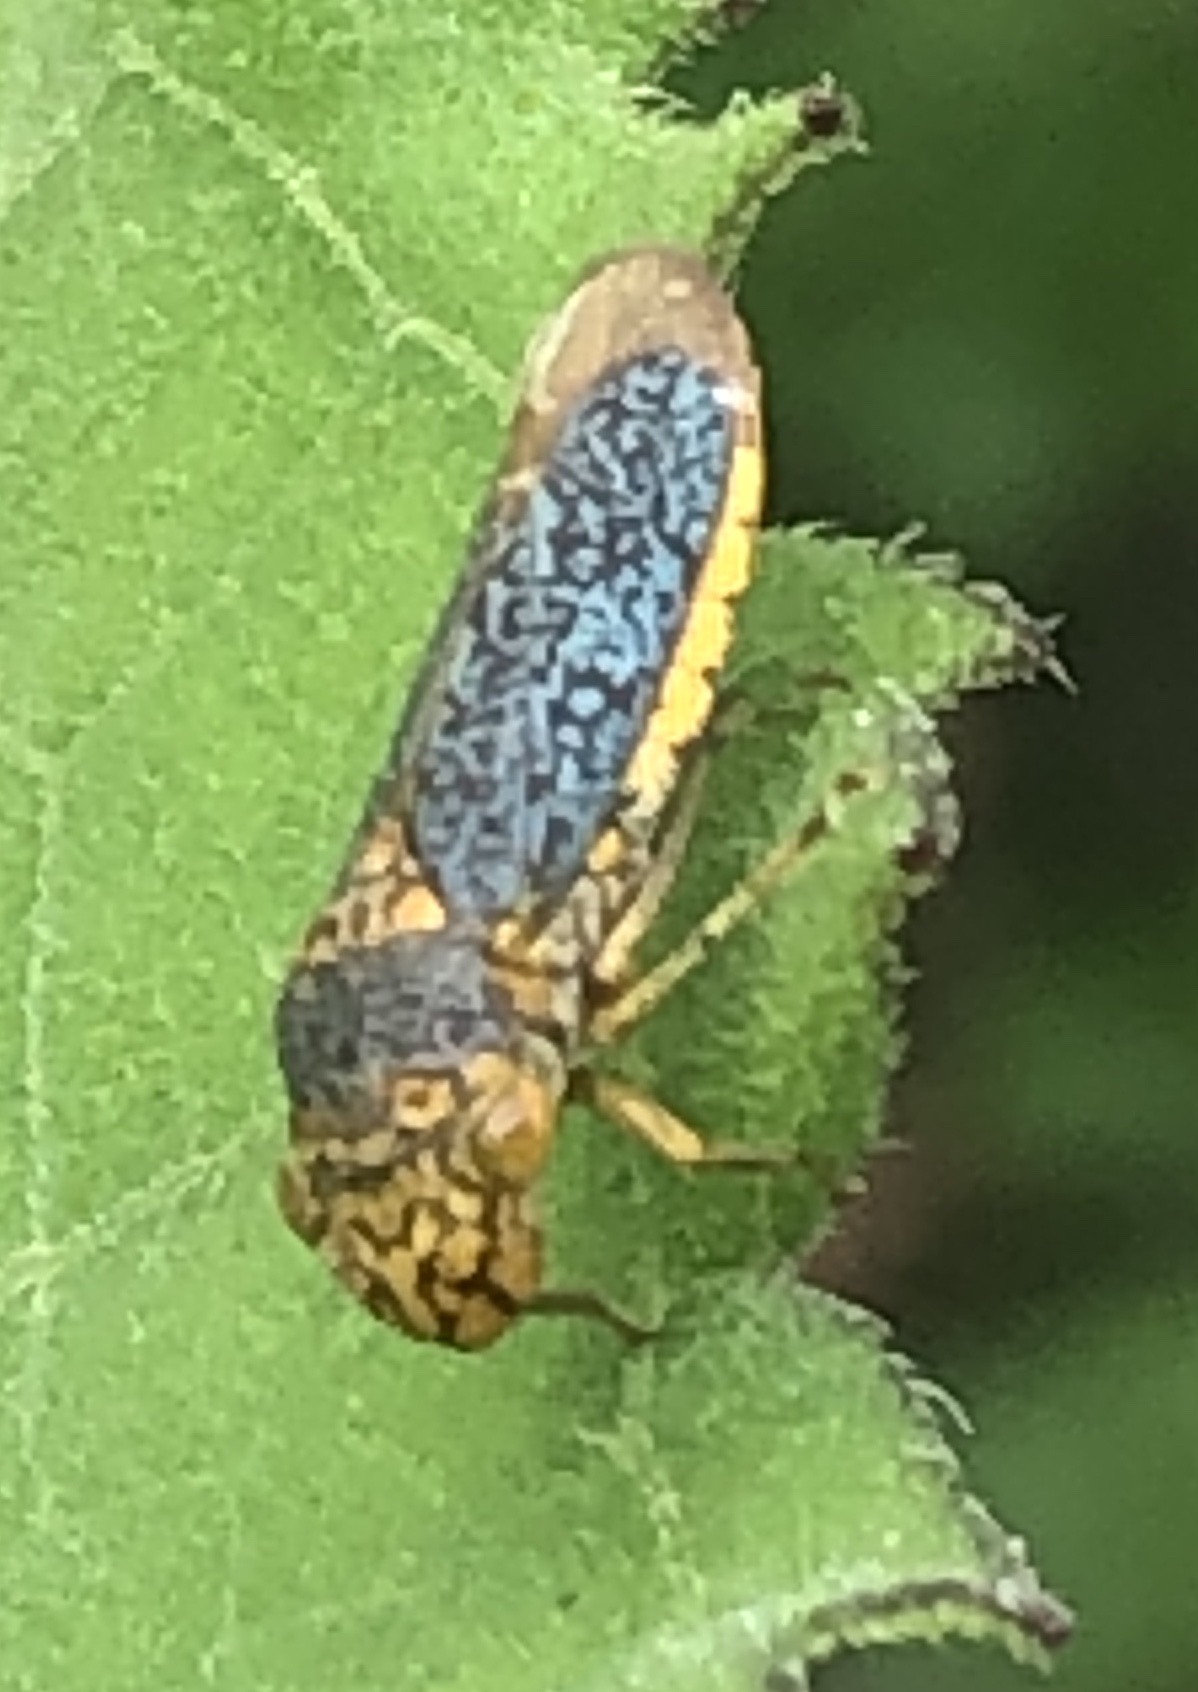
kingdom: Animalia
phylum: Arthropoda
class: Insecta
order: Hemiptera
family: Cicadellidae
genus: Oncometopia
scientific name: Oncometopia orbona
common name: Broad-headed sharpshooter
